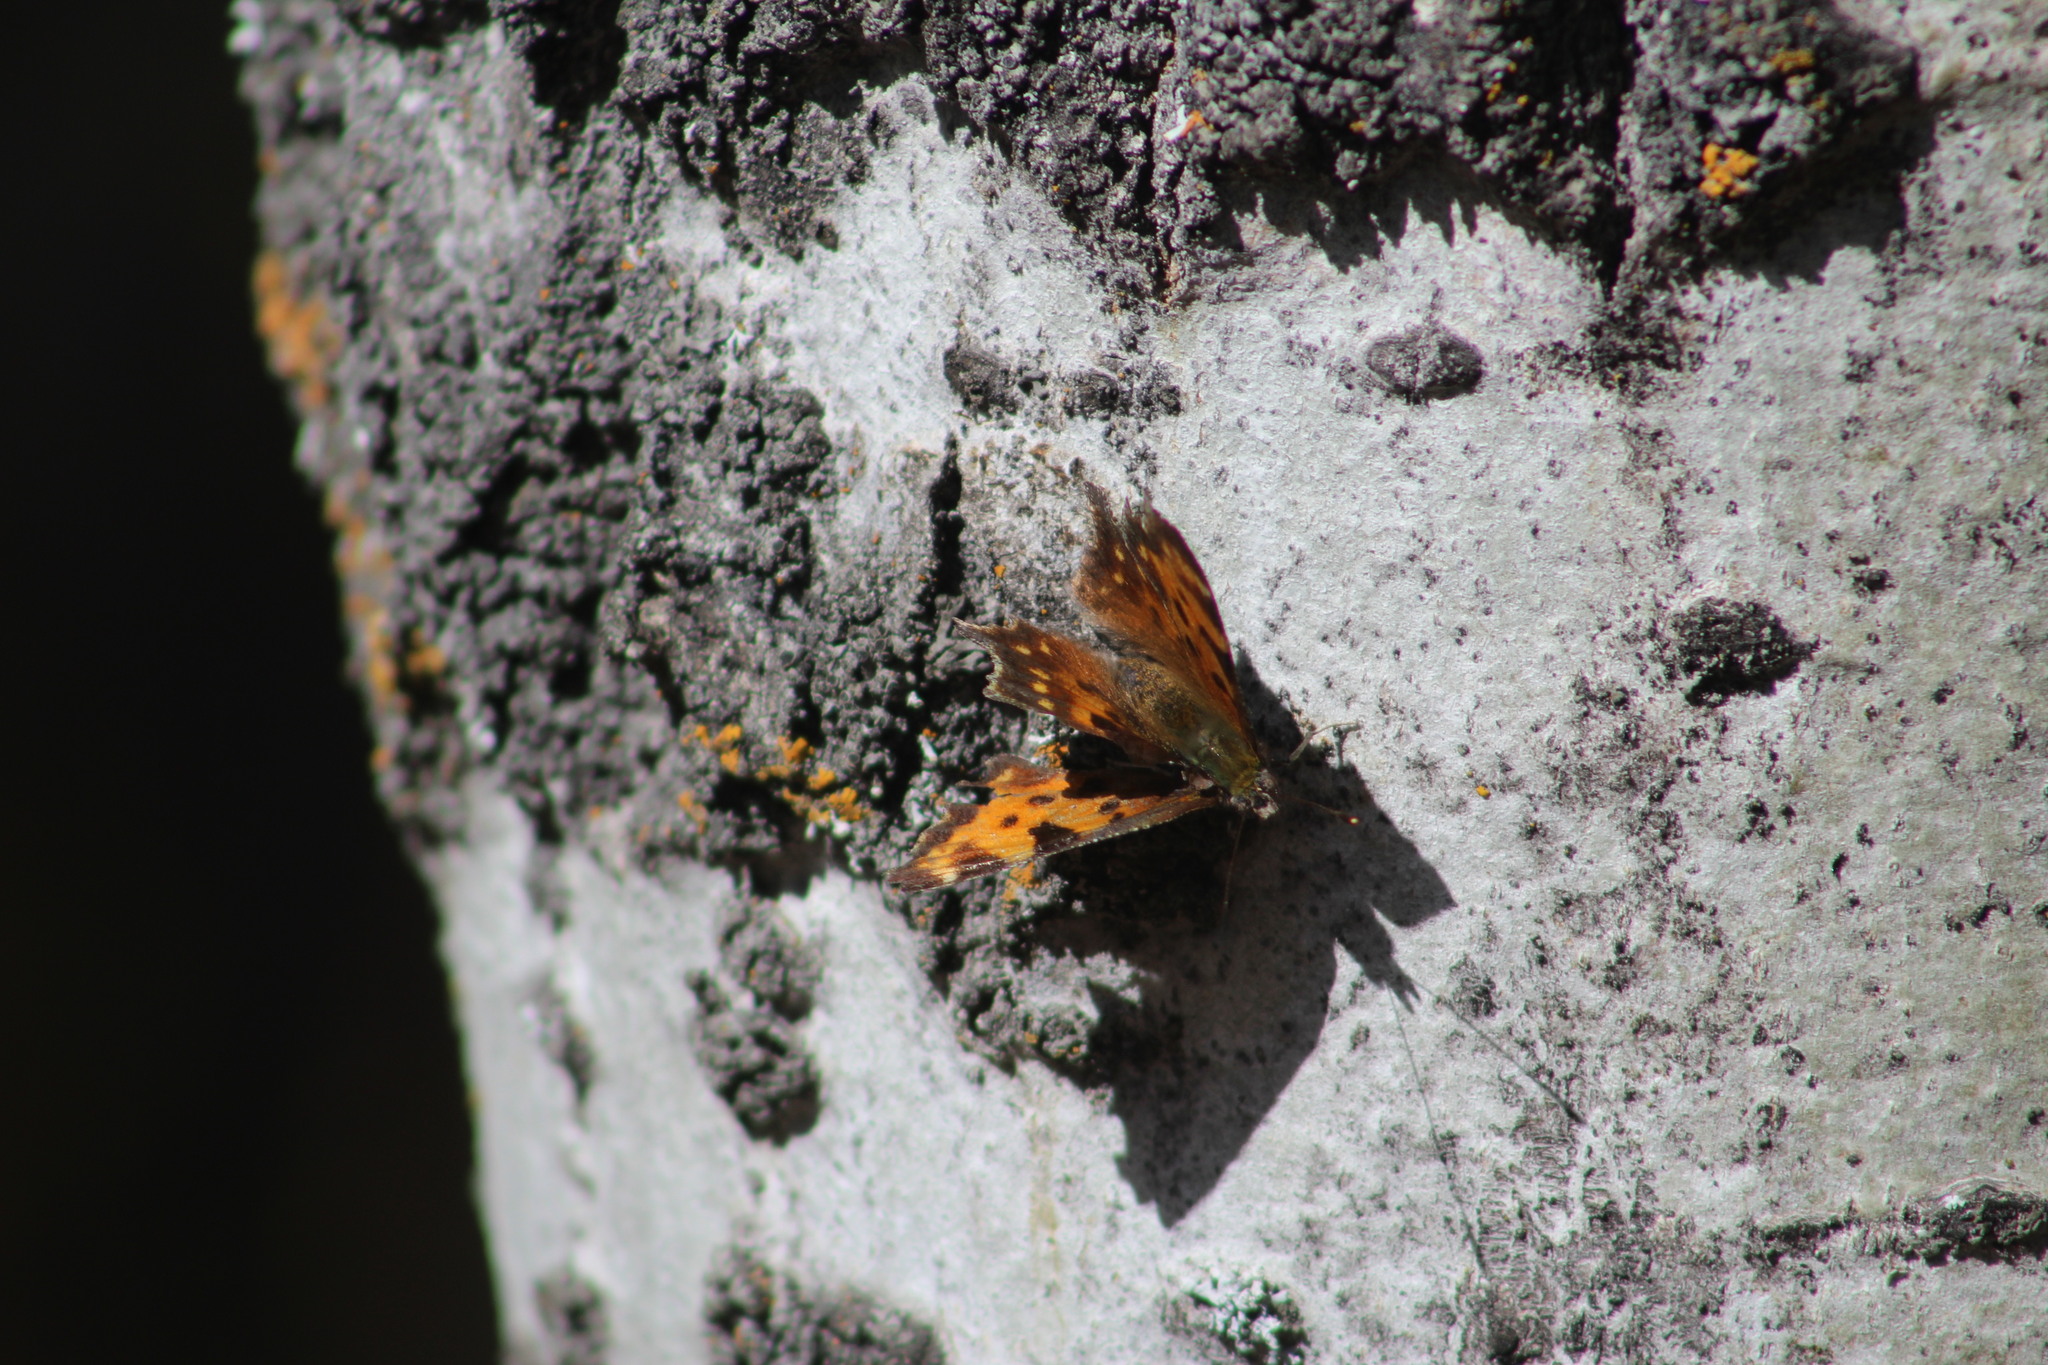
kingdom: Animalia
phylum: Arthropoda
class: Insecta
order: Lepidoptera
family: Nymphalidae
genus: Polygonia
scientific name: Polygonia faunus
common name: Green comma
